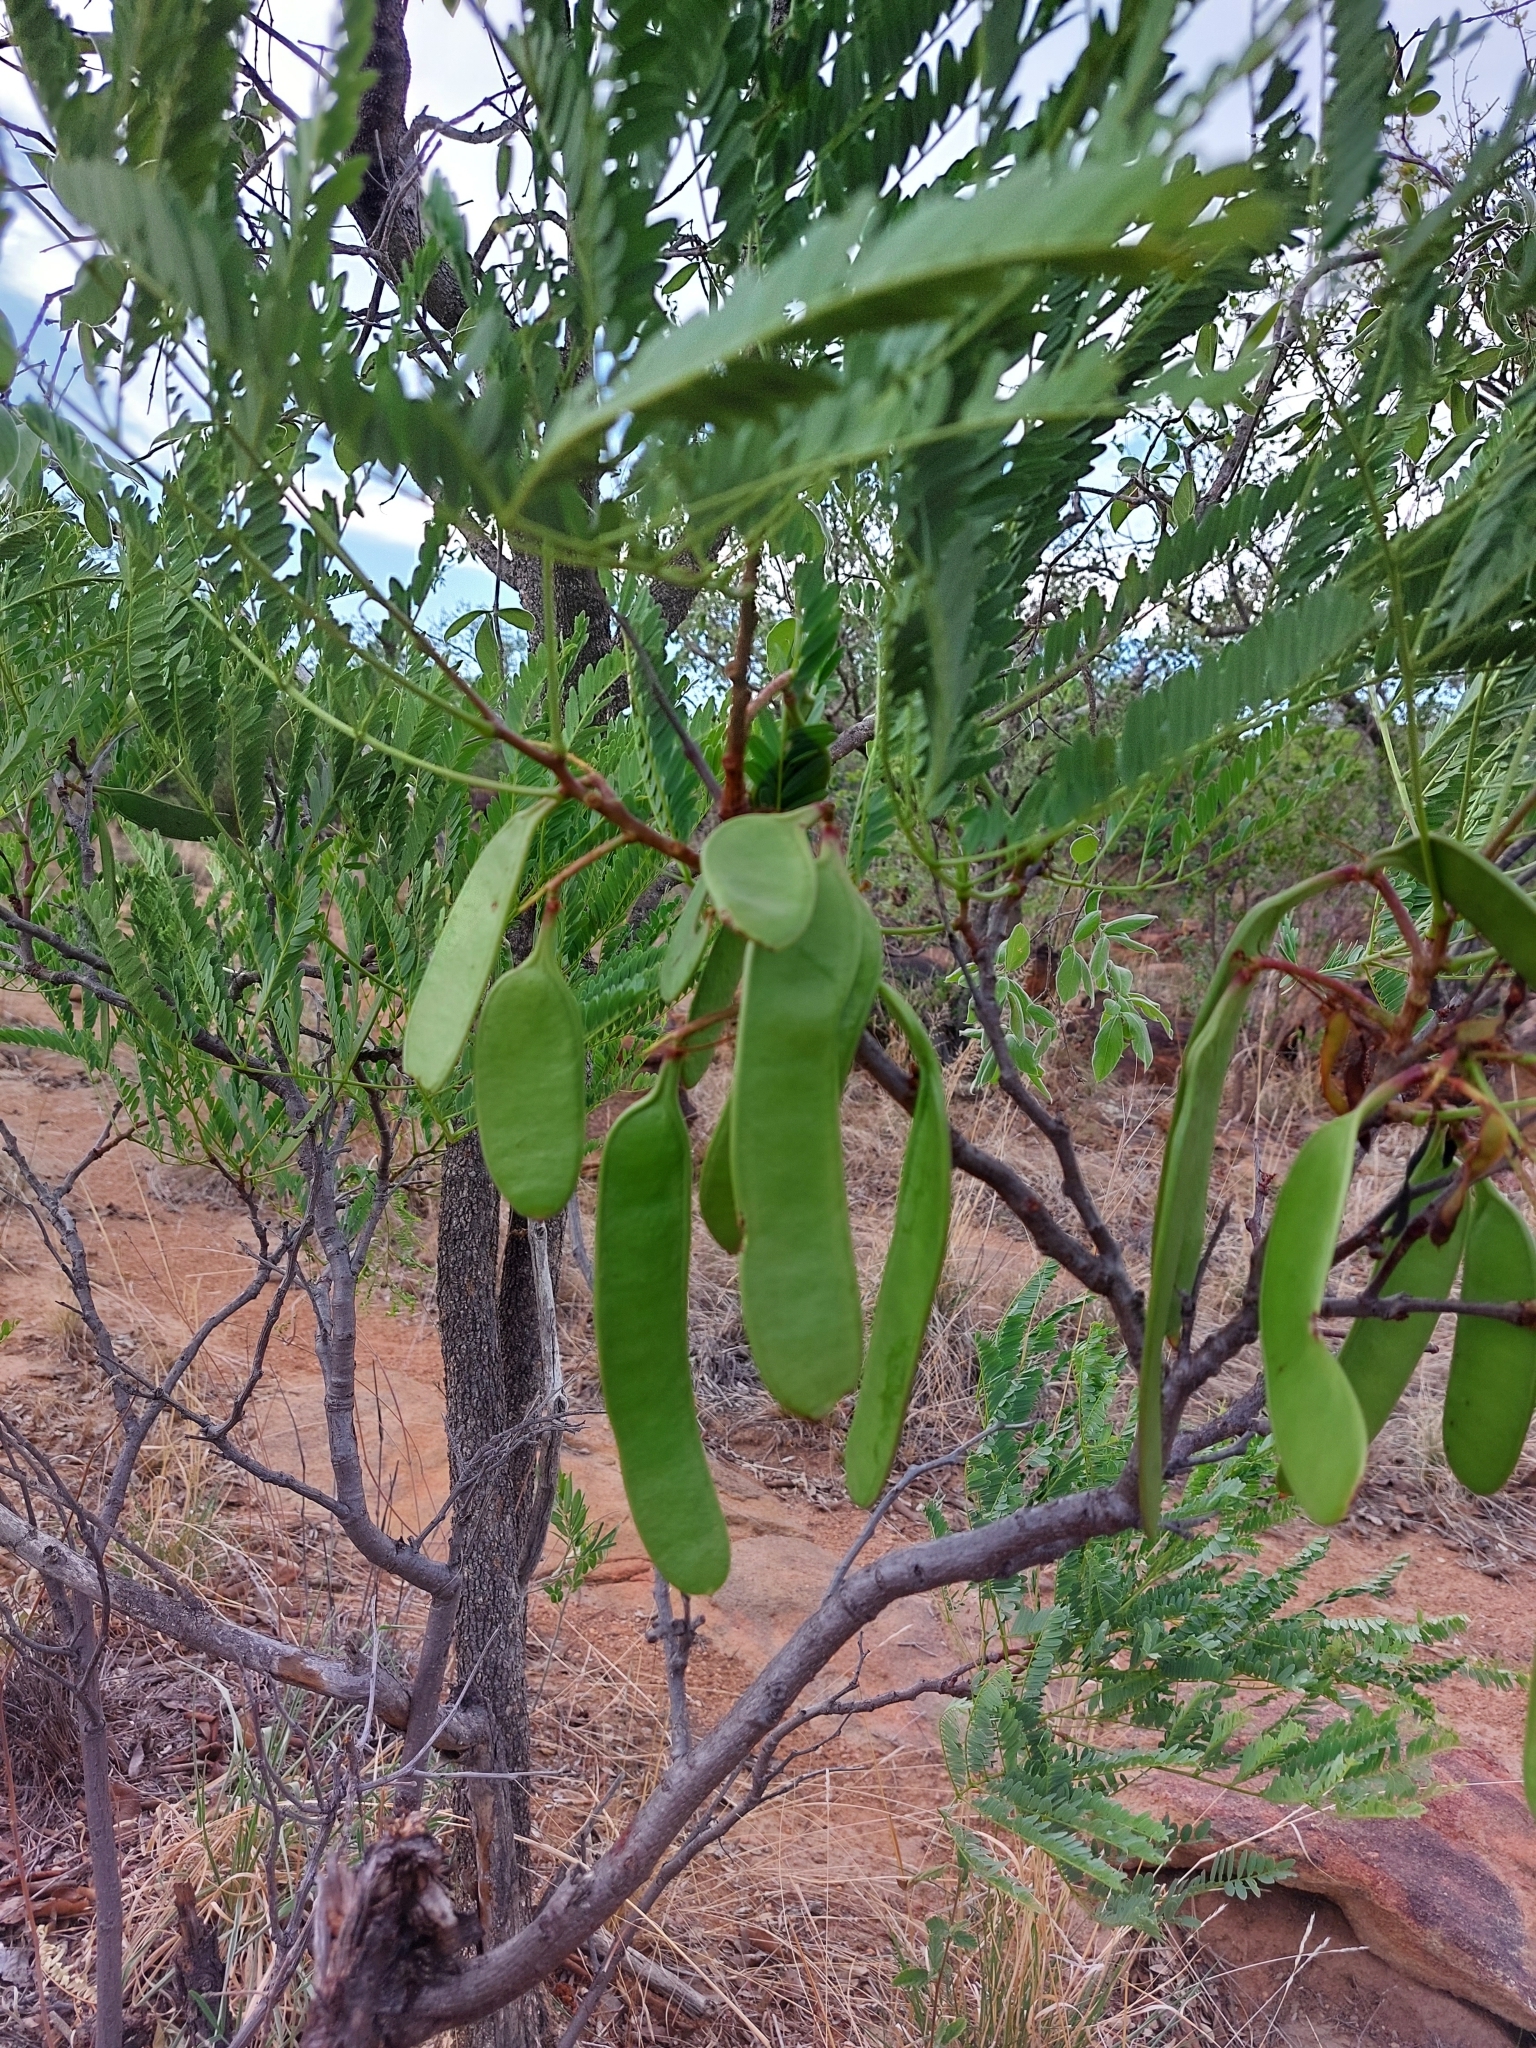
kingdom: Plantae
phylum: Tracheophyta
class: Magnoliopsida
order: Fabales
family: Fabaceae
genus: Elephantorrhiza
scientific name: Elephantorrhiza burkei
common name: Broad-pod elephant-root
